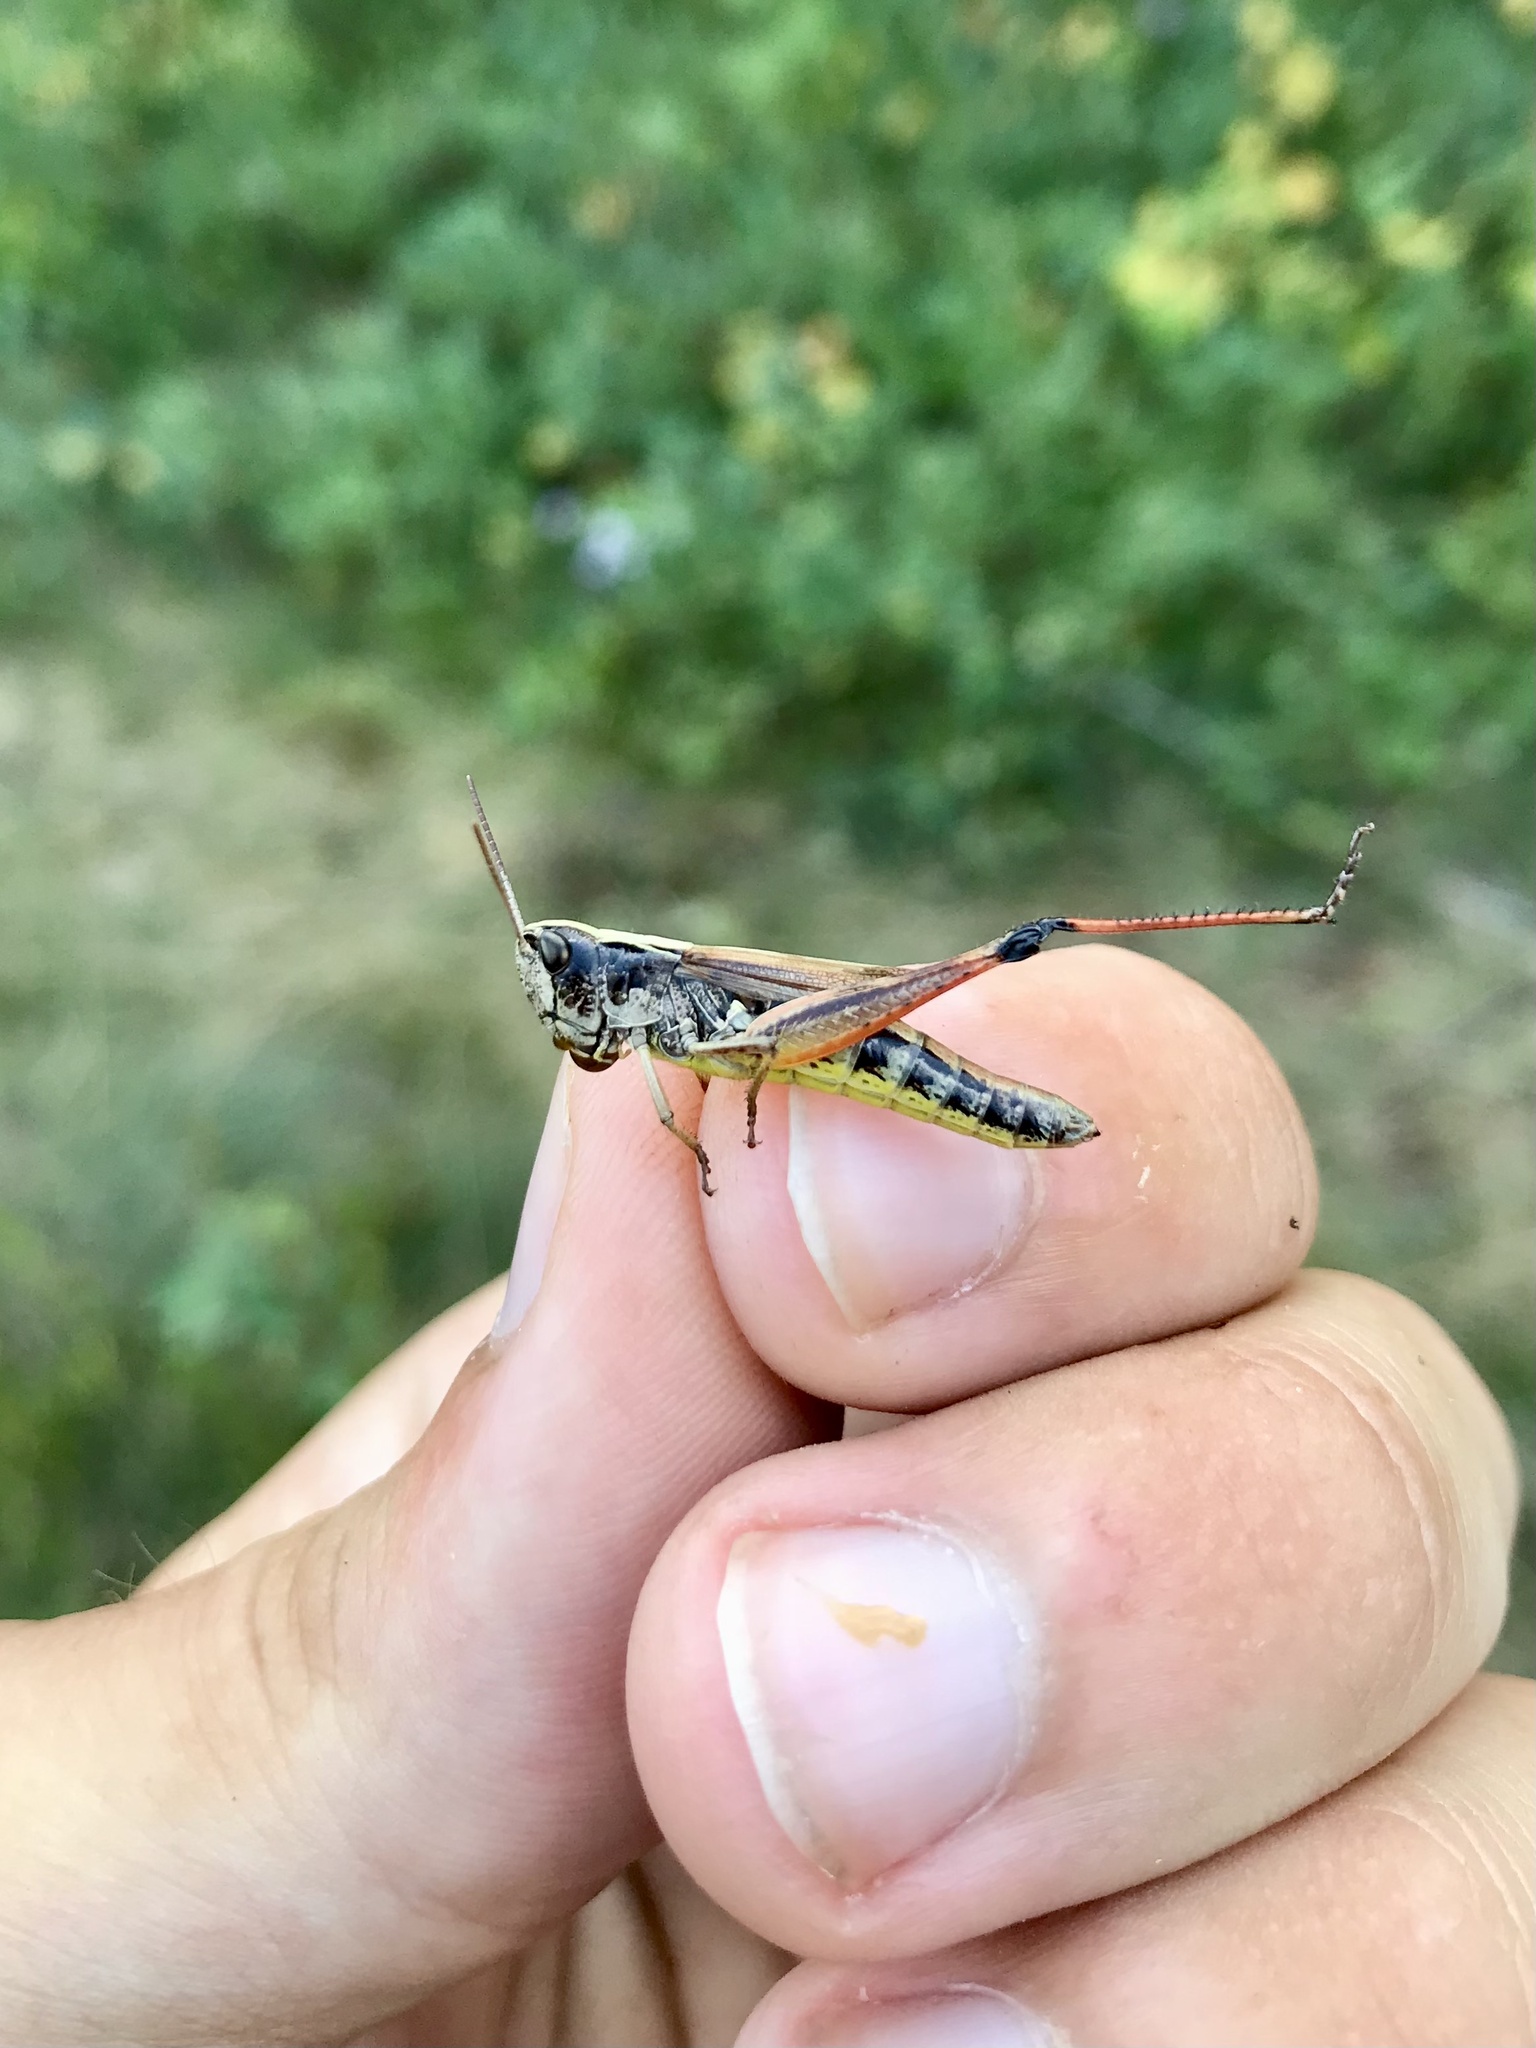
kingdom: Animalia
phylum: Arthropoda
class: Insecta
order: Orthoptera
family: Acrididae
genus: Pseudochorthippus
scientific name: Pseudochorthippus curtipennis
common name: Marsh meadow grasshopper
